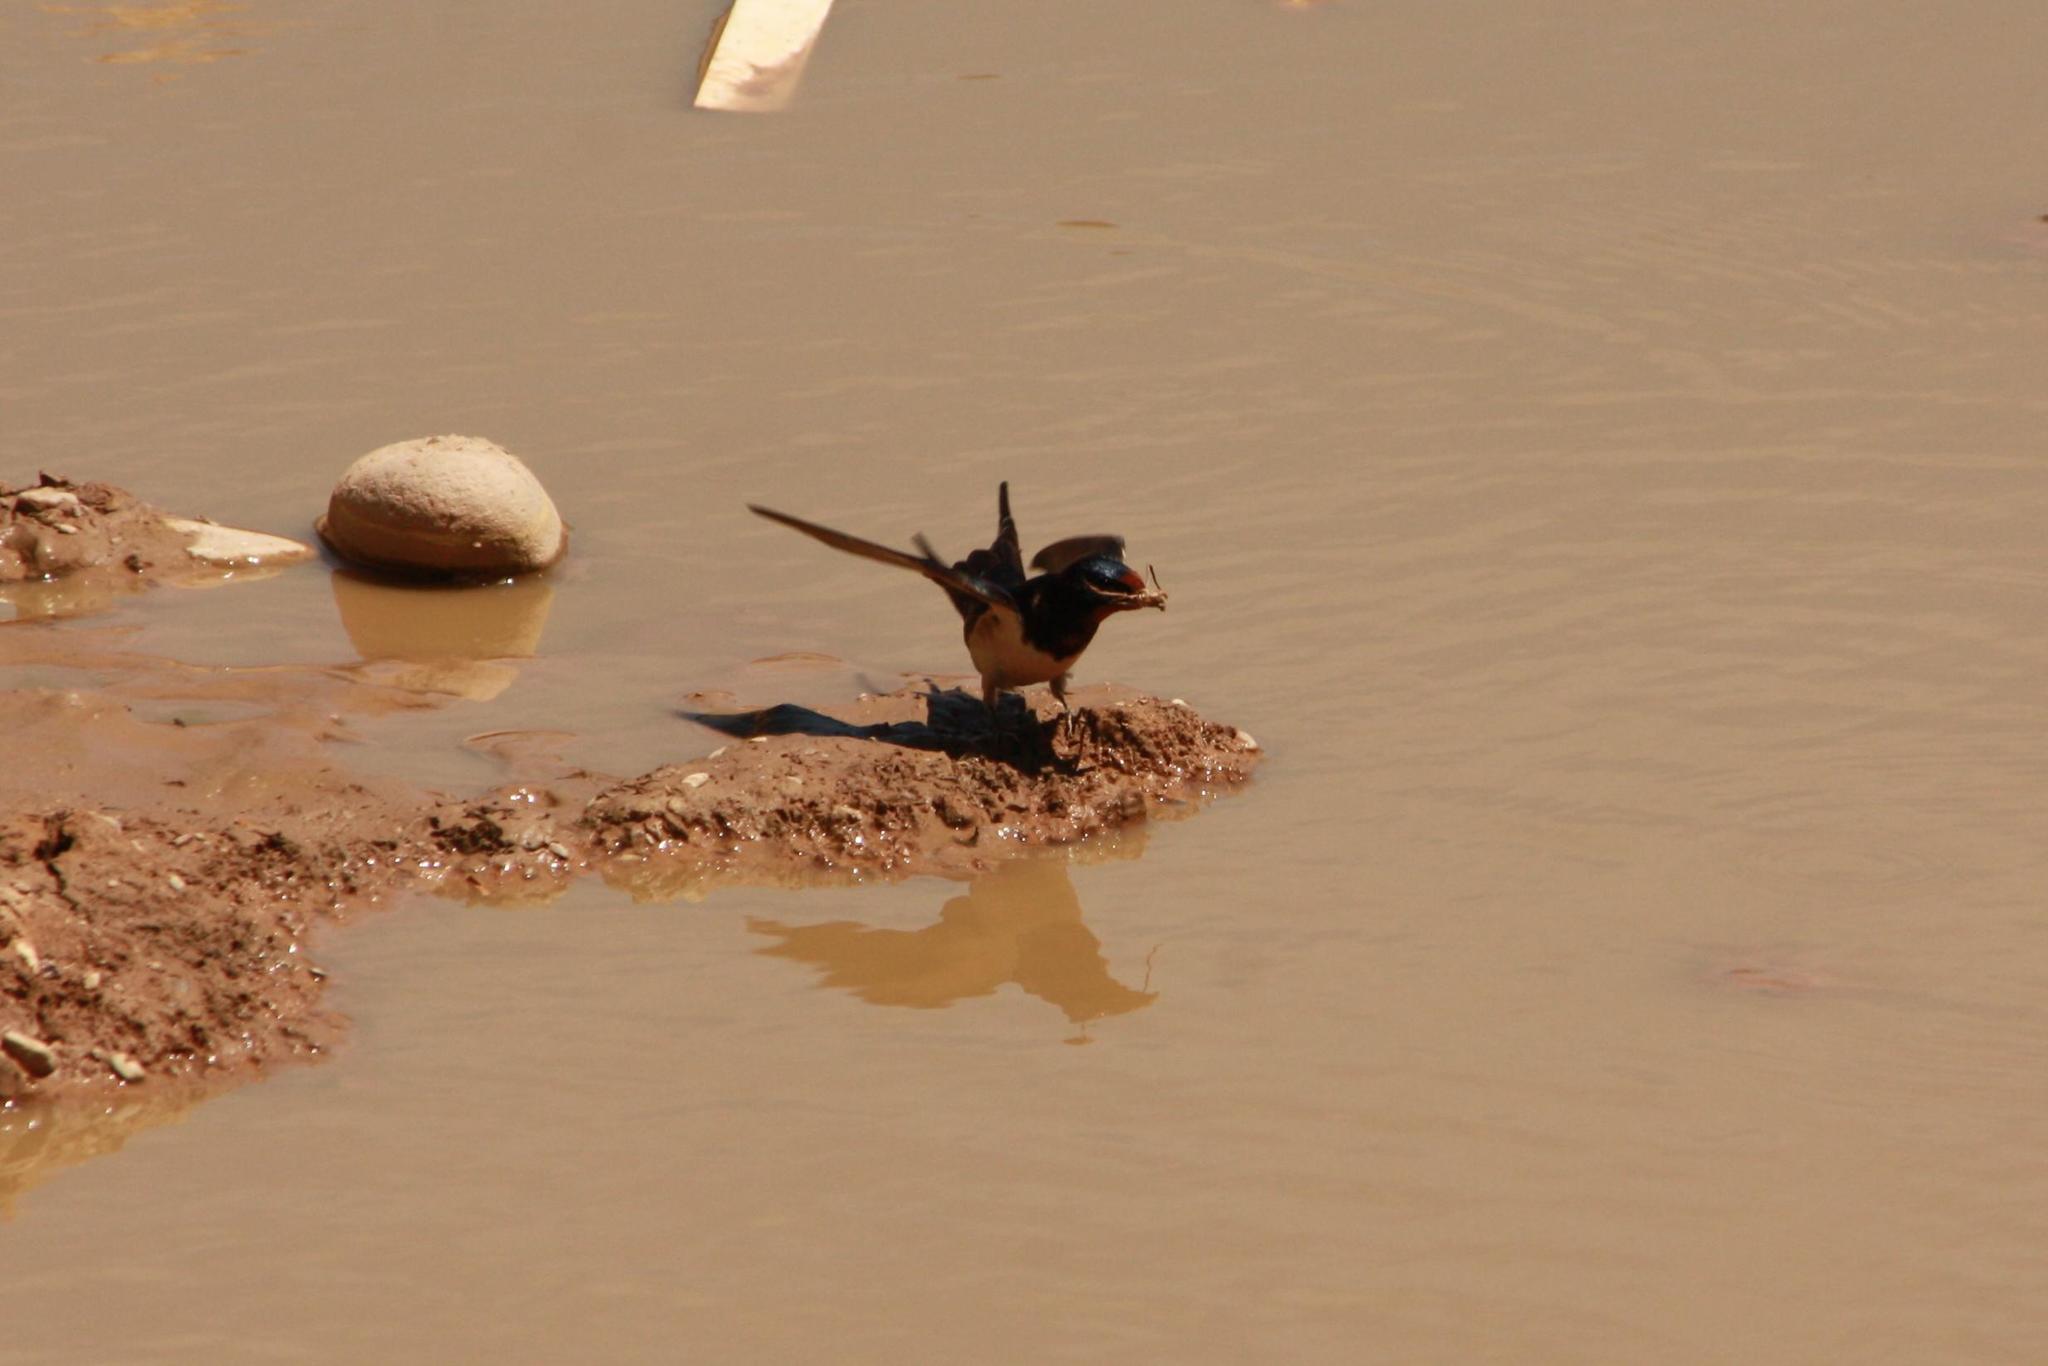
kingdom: Animalia
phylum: Chordata
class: Aves
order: Passeriformes
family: Hirundinidae
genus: Hirundo
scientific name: Hirundo rustica
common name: Barn swallow
